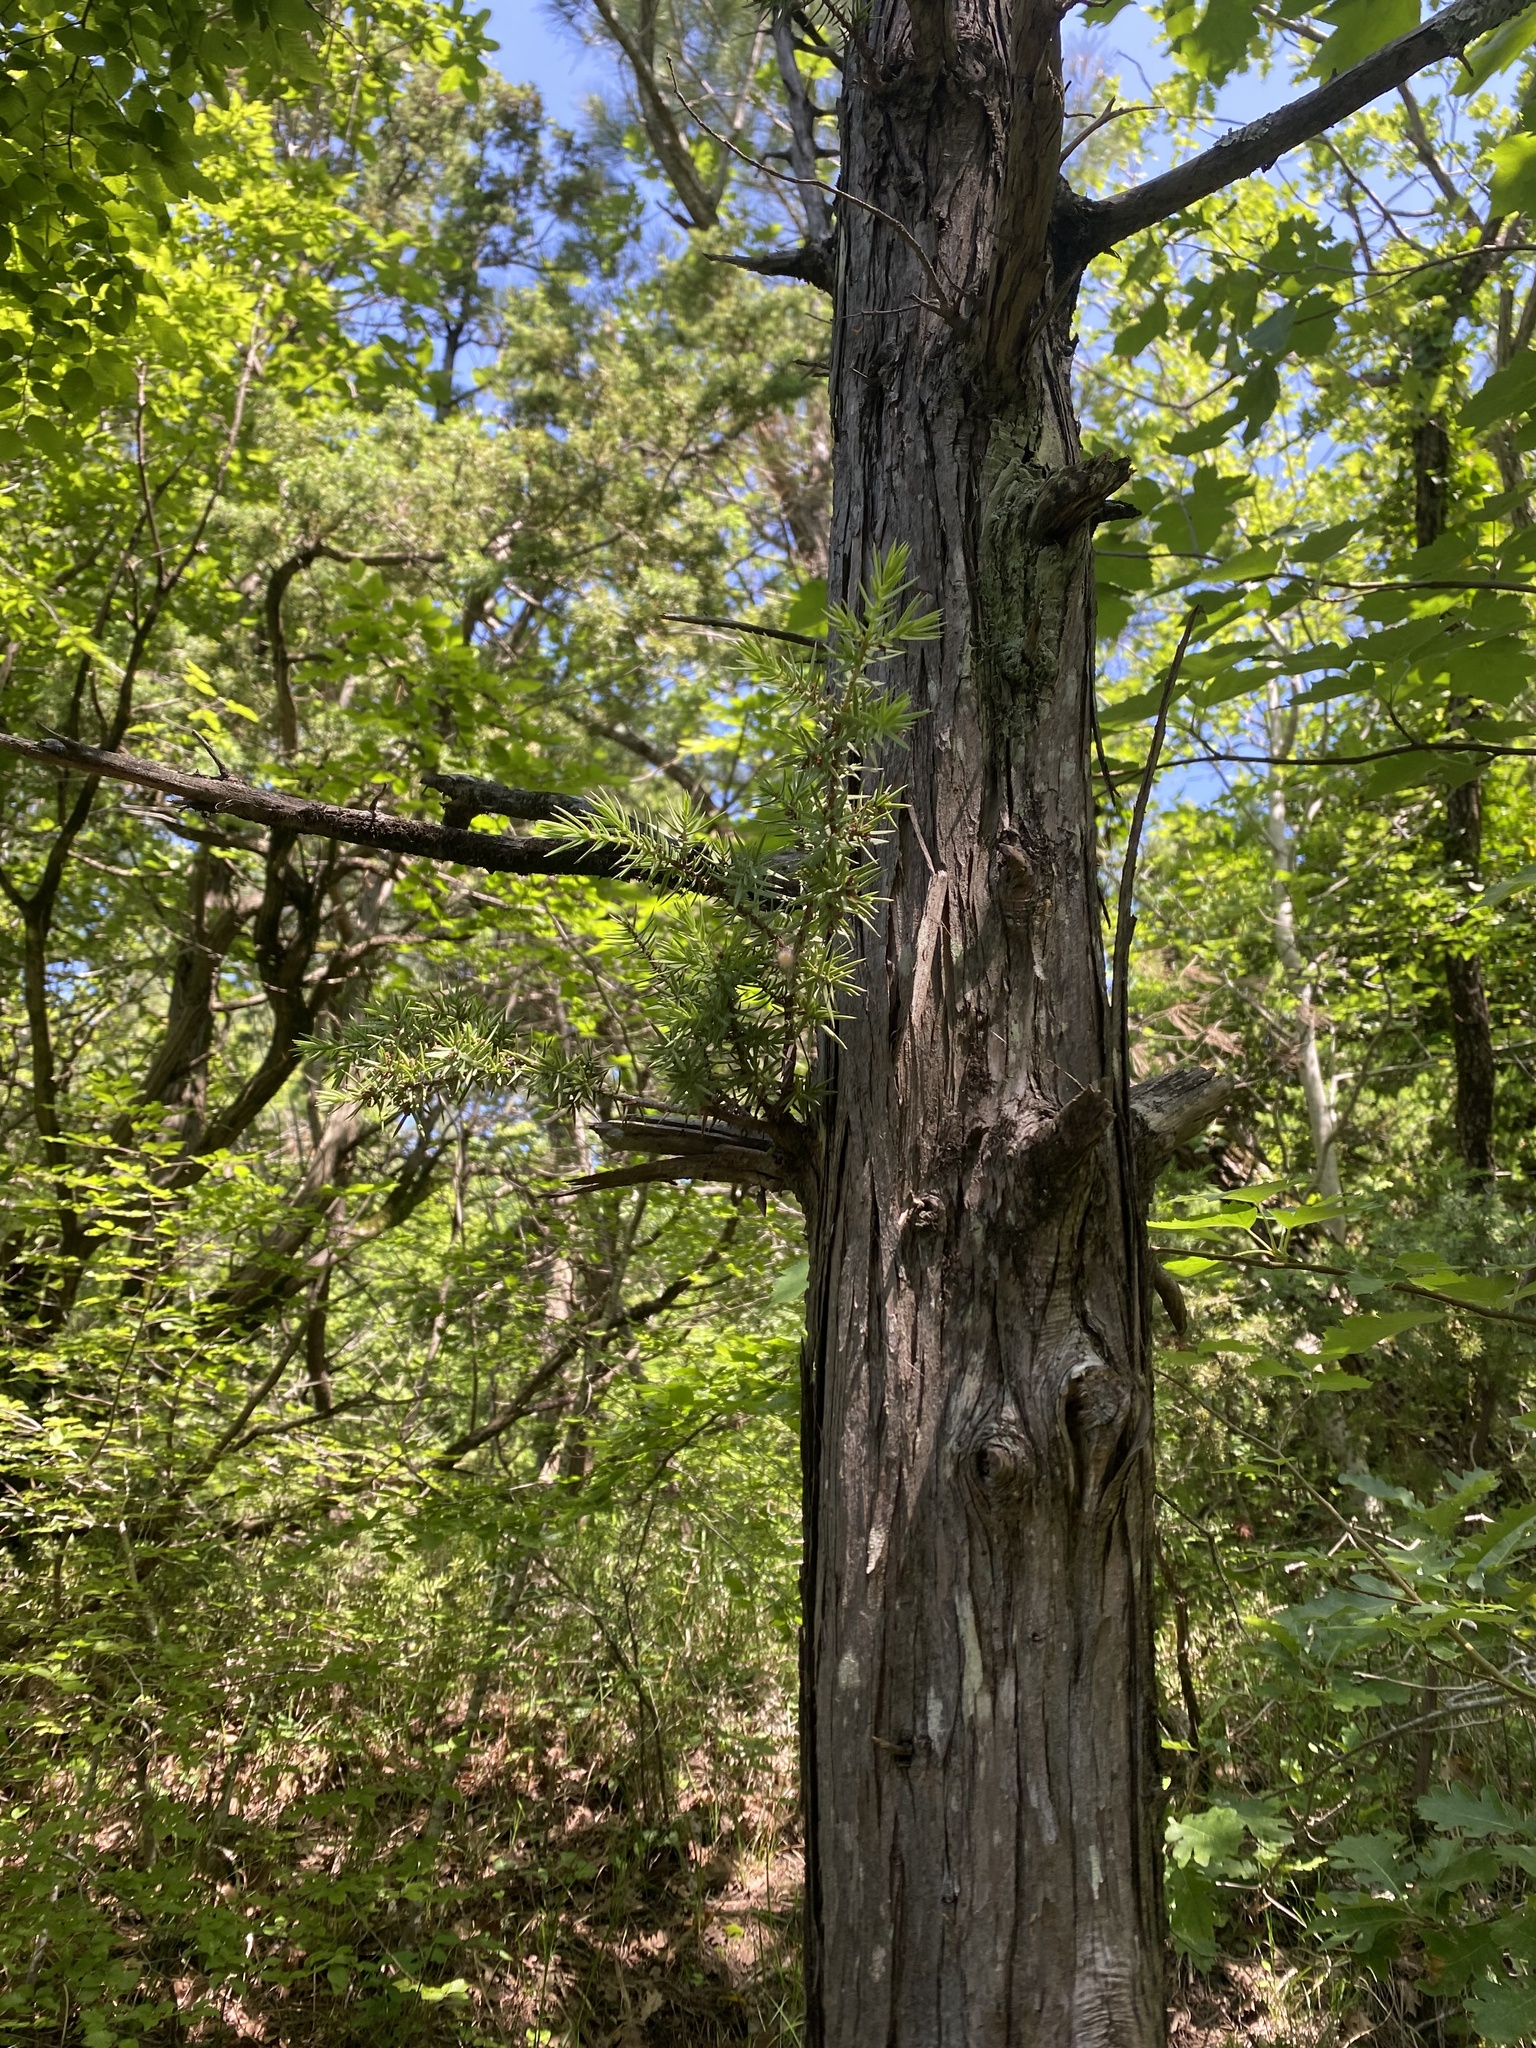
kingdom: Plantae
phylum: Tracheophyta
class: Pinopsida
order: Pinales
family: Cupressaceae
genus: Juniperus
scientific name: Juniperus oxycedrus
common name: Prickly juniper
